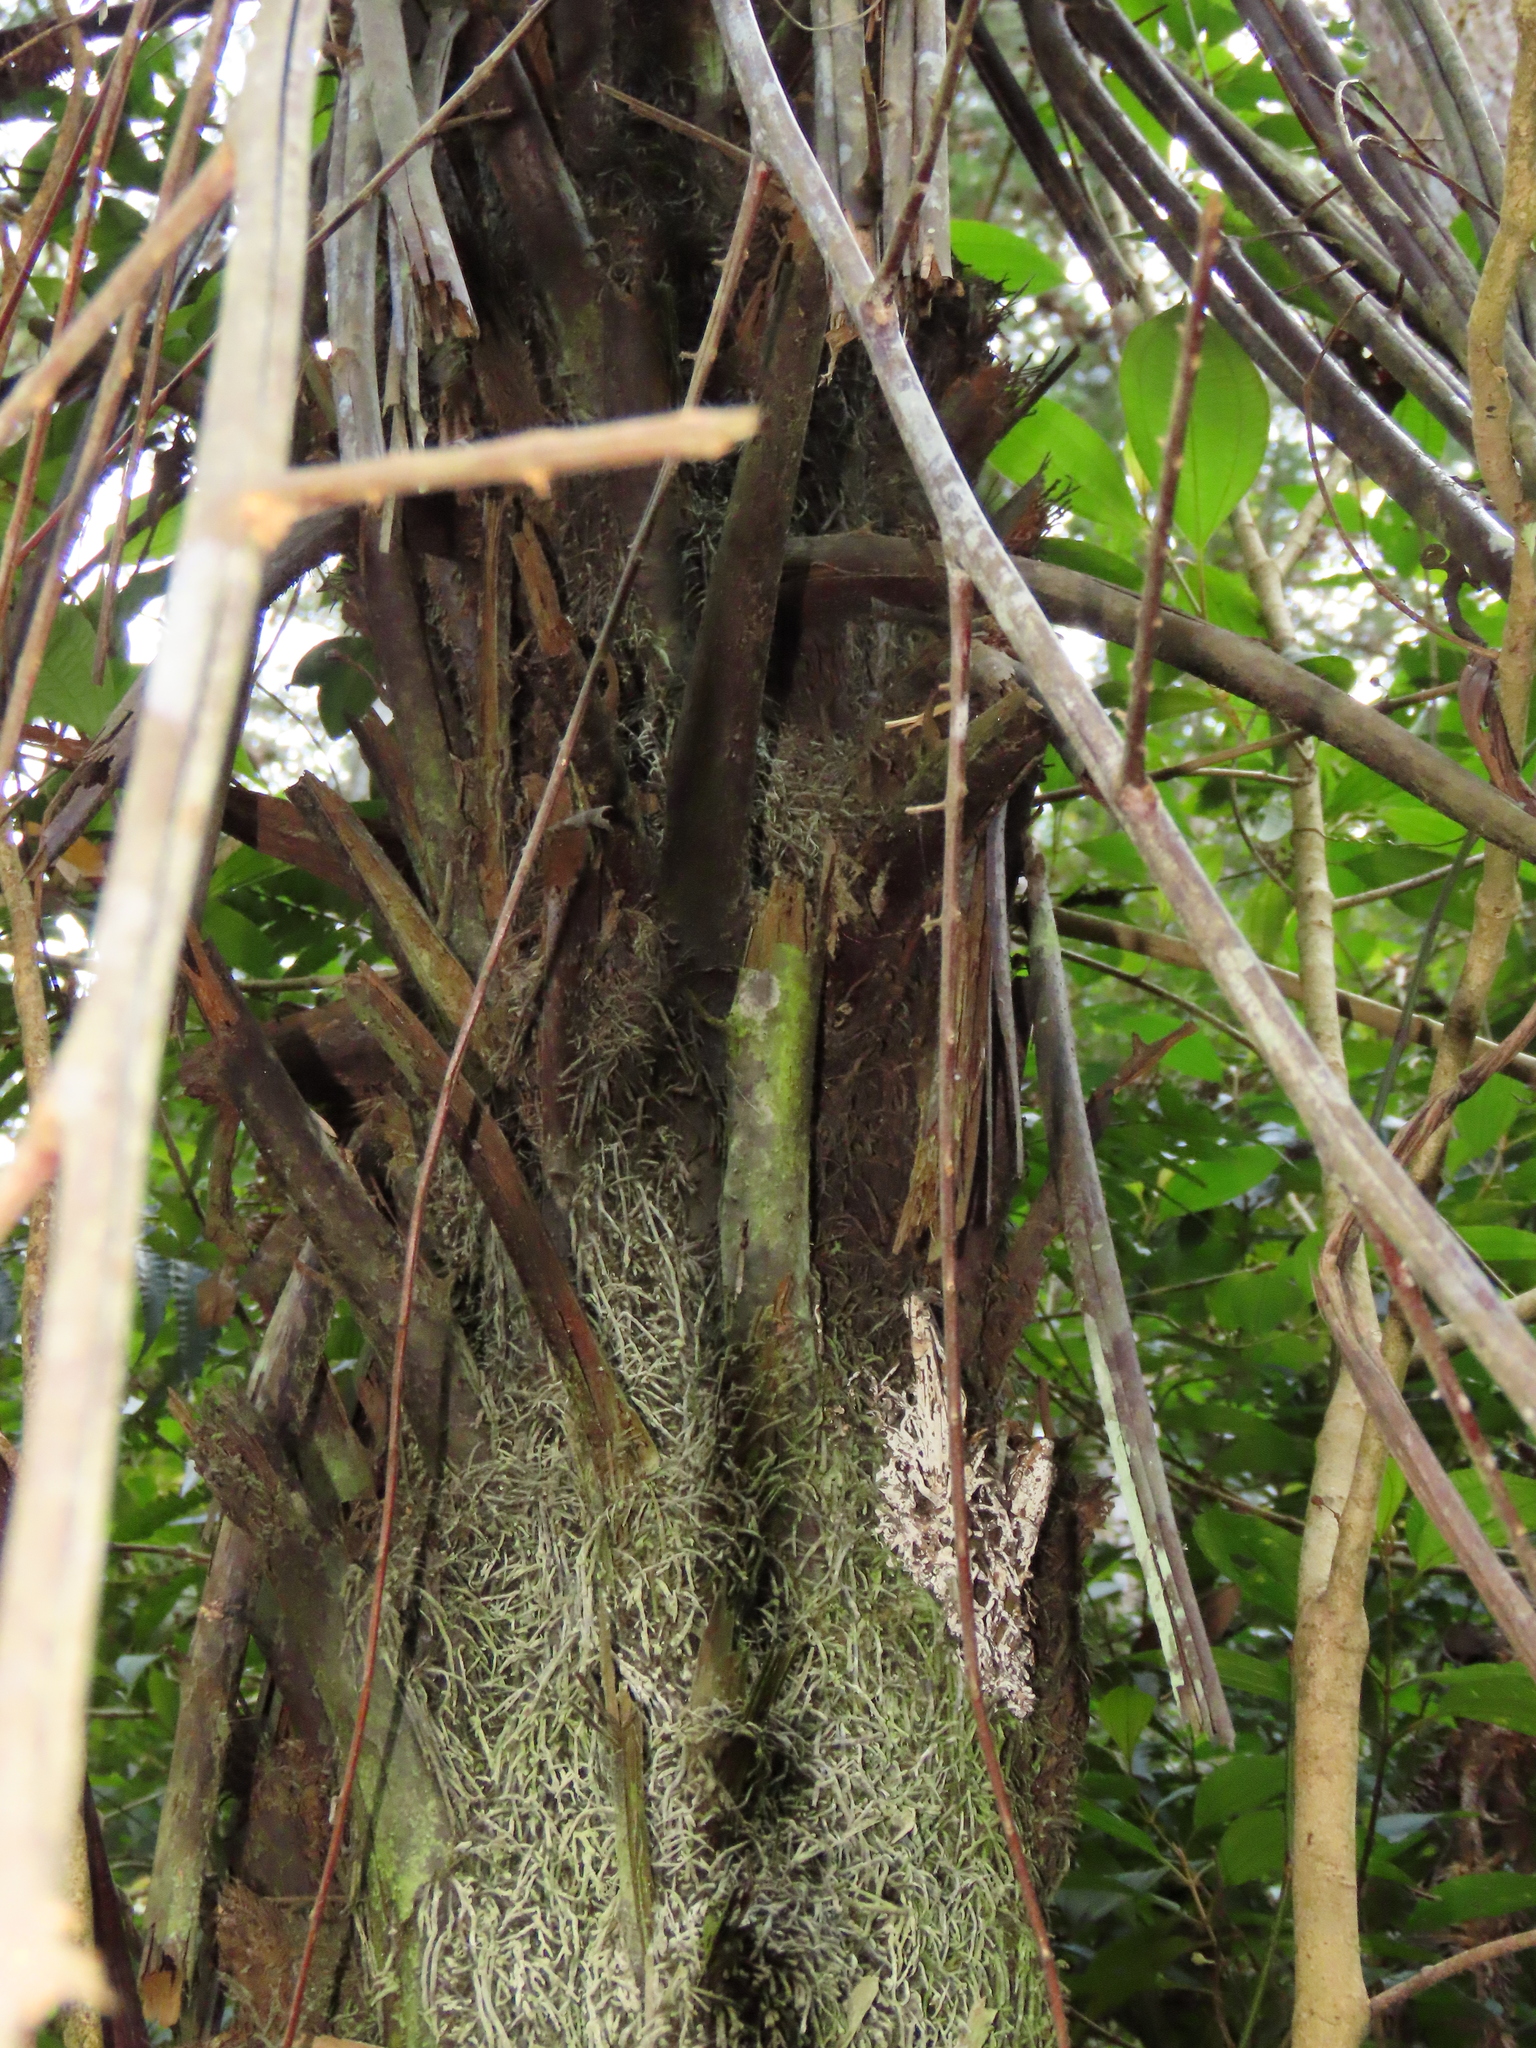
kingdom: Plantae
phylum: Tracheophyta
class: Polypodiopsida
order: Cyatheales
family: Cyatheaceae
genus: Alsophila
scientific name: Alsophila spinulosa
